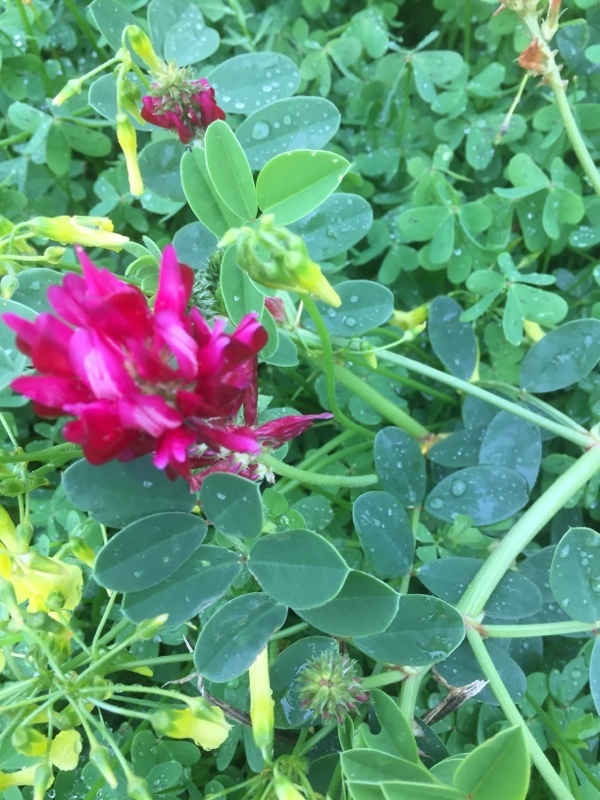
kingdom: Plantae
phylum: Tracheophyta
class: Magnoliopsida
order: Fabales
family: Fabaceae
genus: Sulla
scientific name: Sulla coronaria
